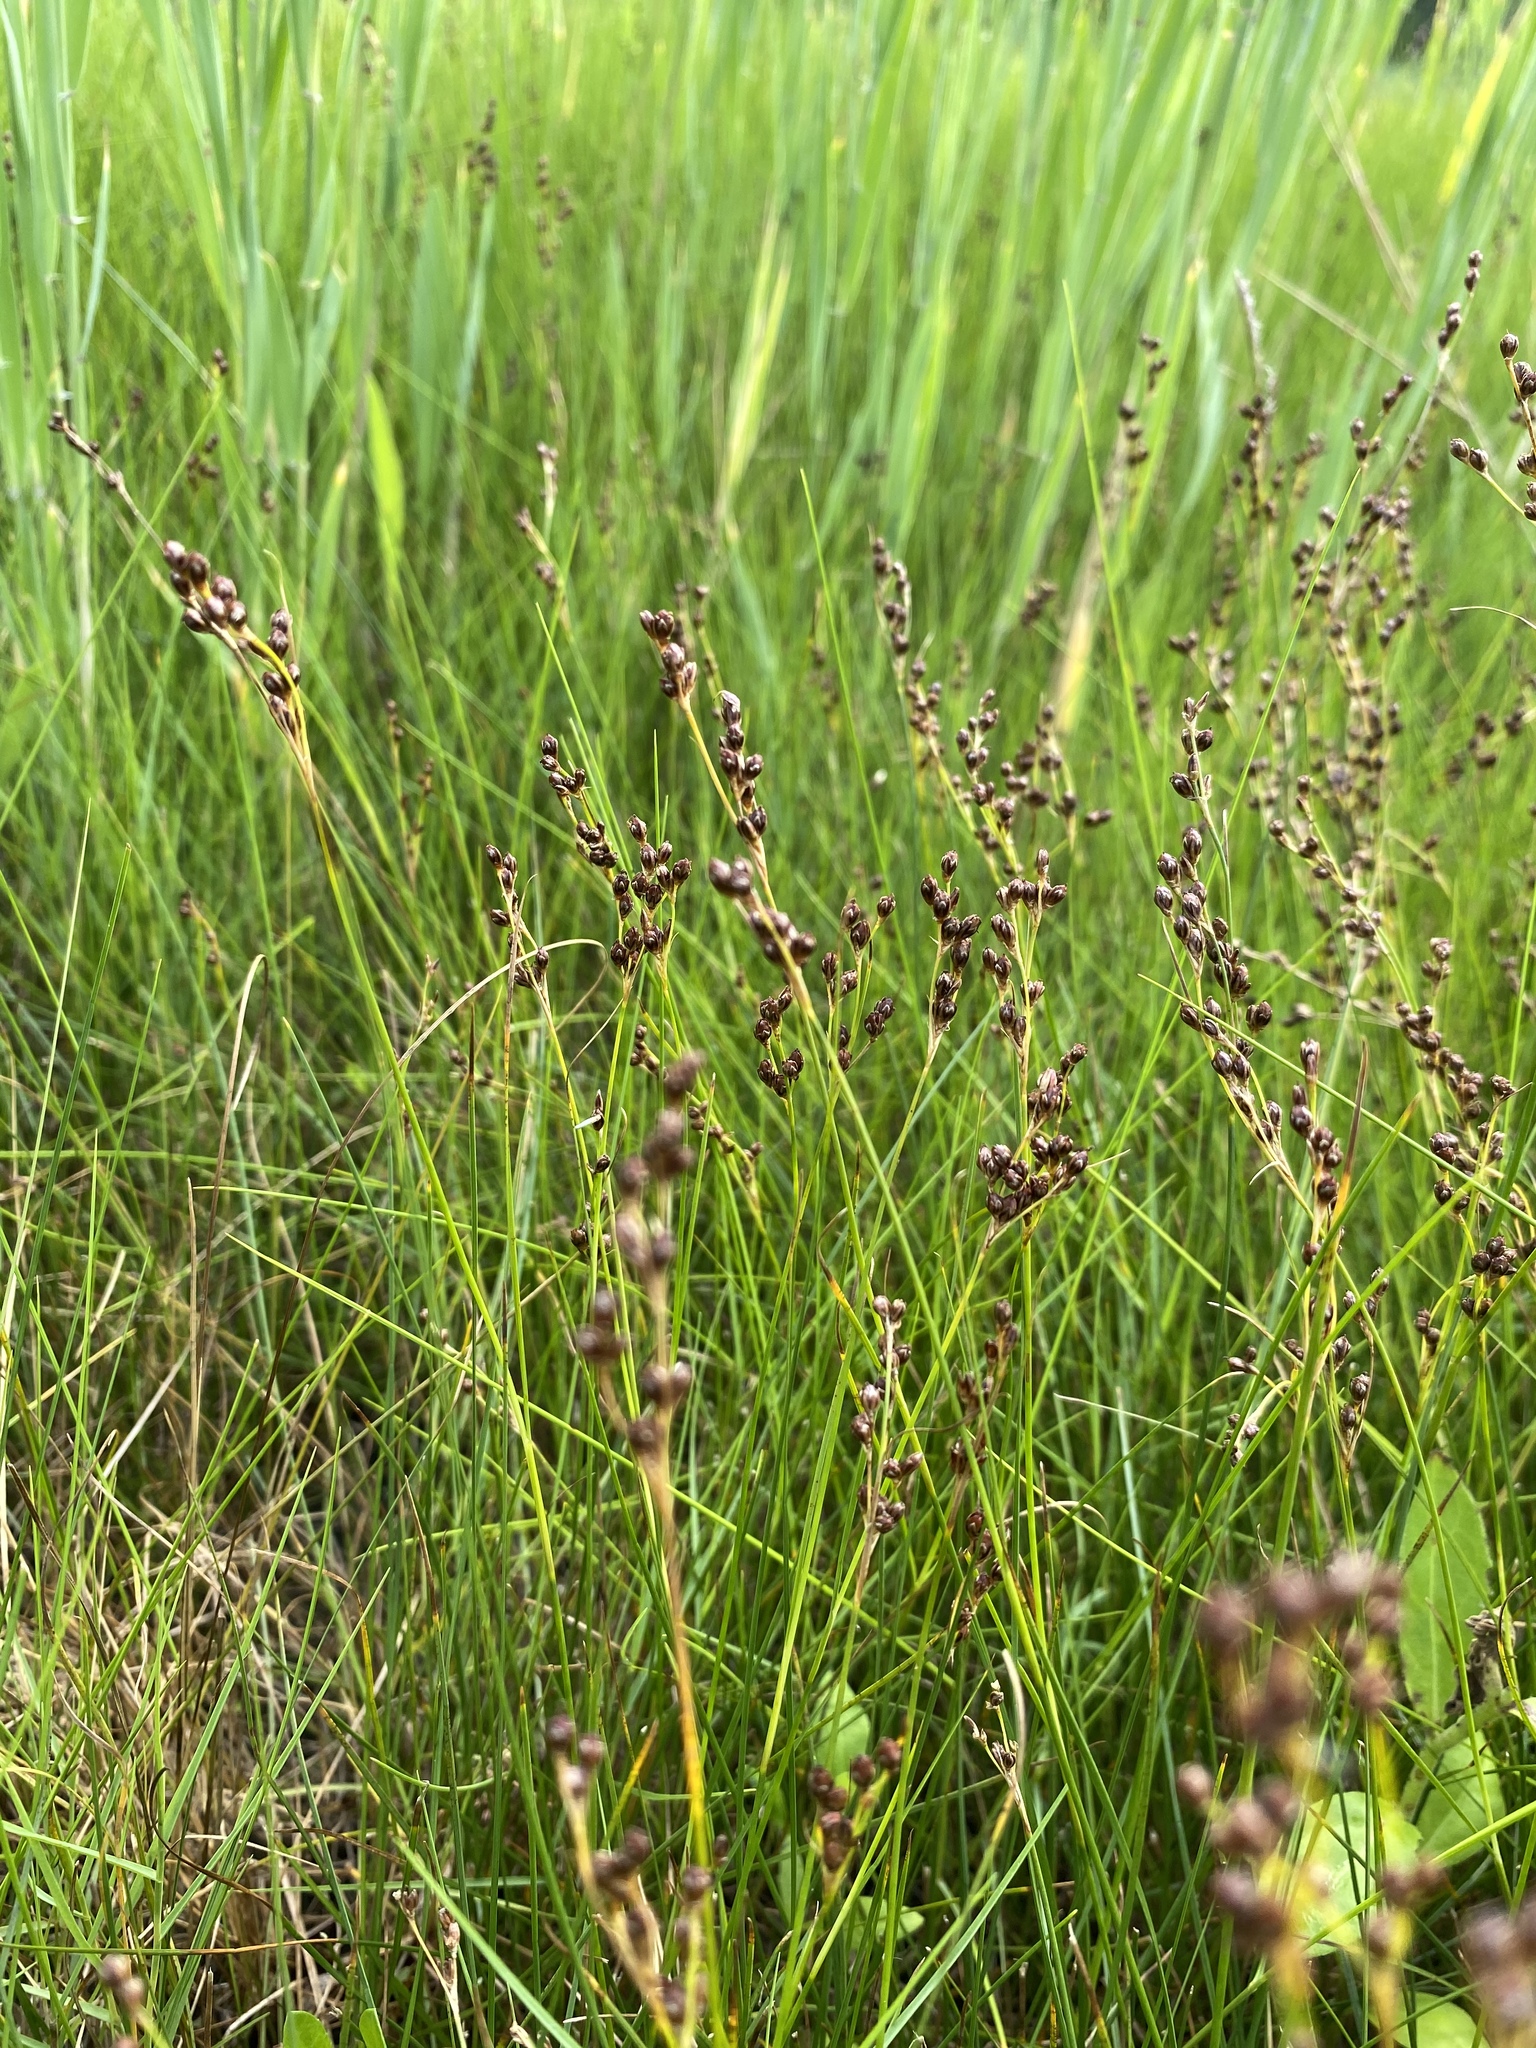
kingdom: Plantae
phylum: Tracheophyta
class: Liliopsida
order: Poales
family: Juncaceae
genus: Juncus
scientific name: Juncus gerardi
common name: Saltmarsh rush
